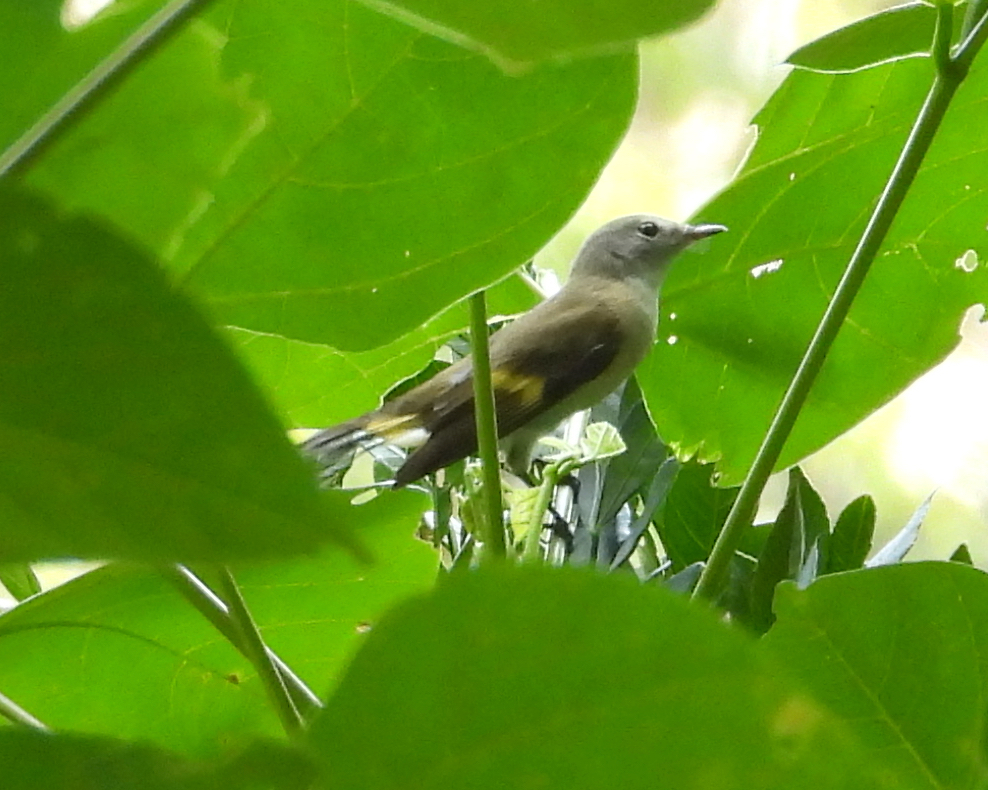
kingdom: Animalia
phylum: Chordata
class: Aves
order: Passeriformes
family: Parulidae
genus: Setophaga
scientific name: Setophaga ruticilla
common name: American redstart
